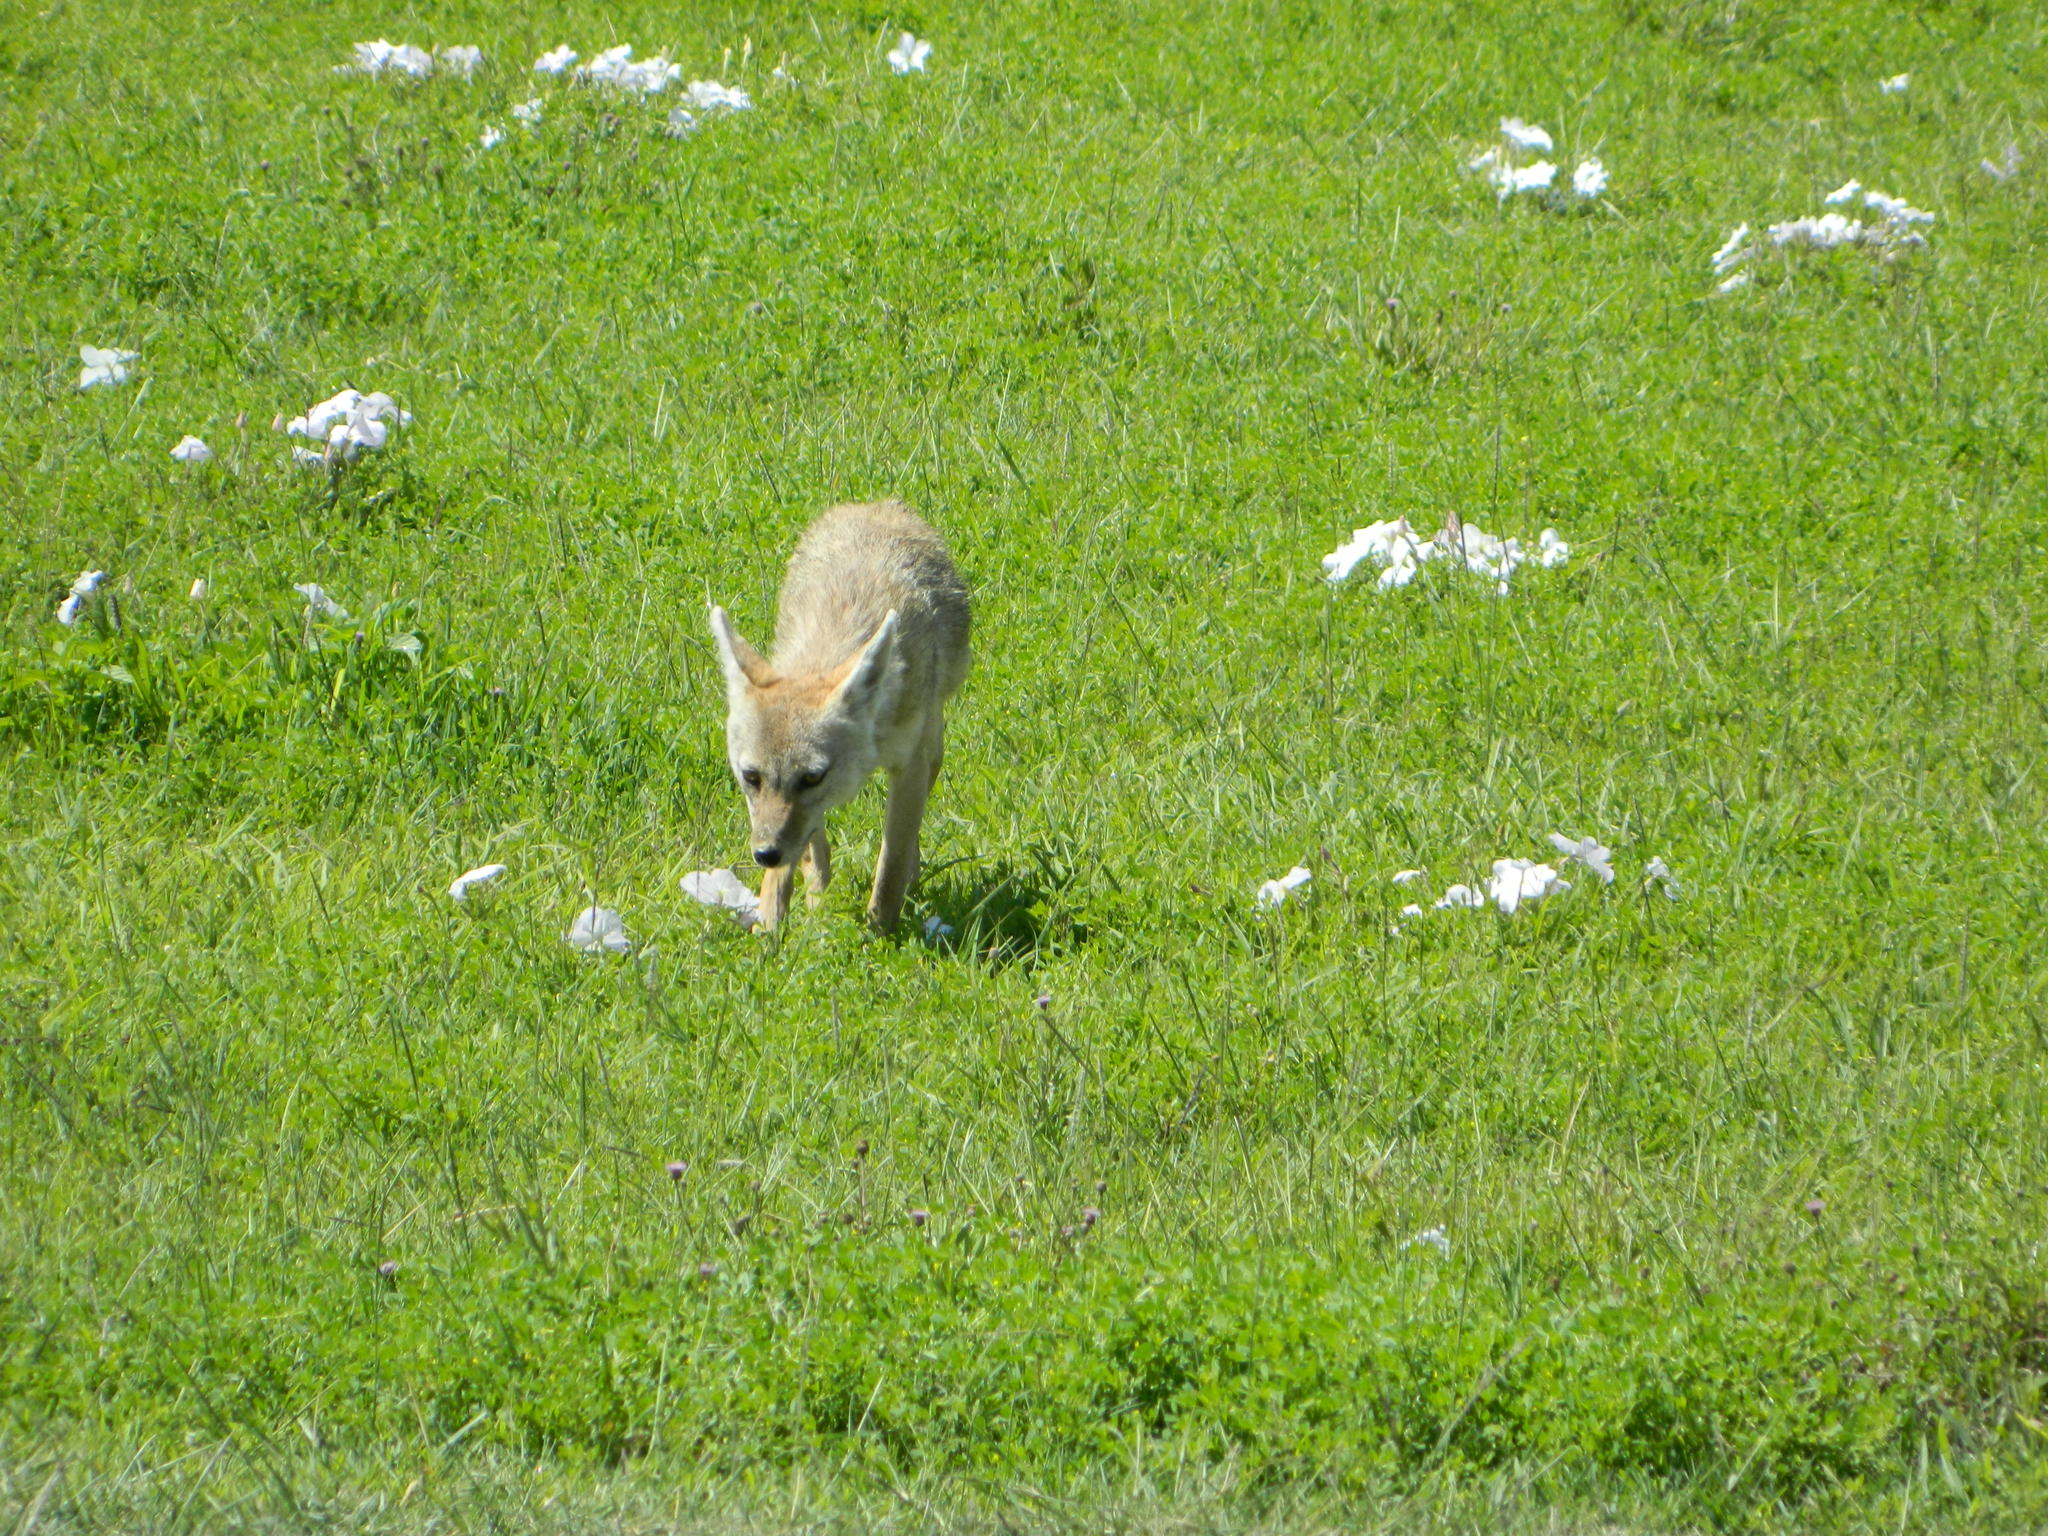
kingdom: Animalia
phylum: Chordata
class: Mammalia
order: Carnivora
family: Canidae
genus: Canis
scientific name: Canis lupaster
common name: African golden wolf
